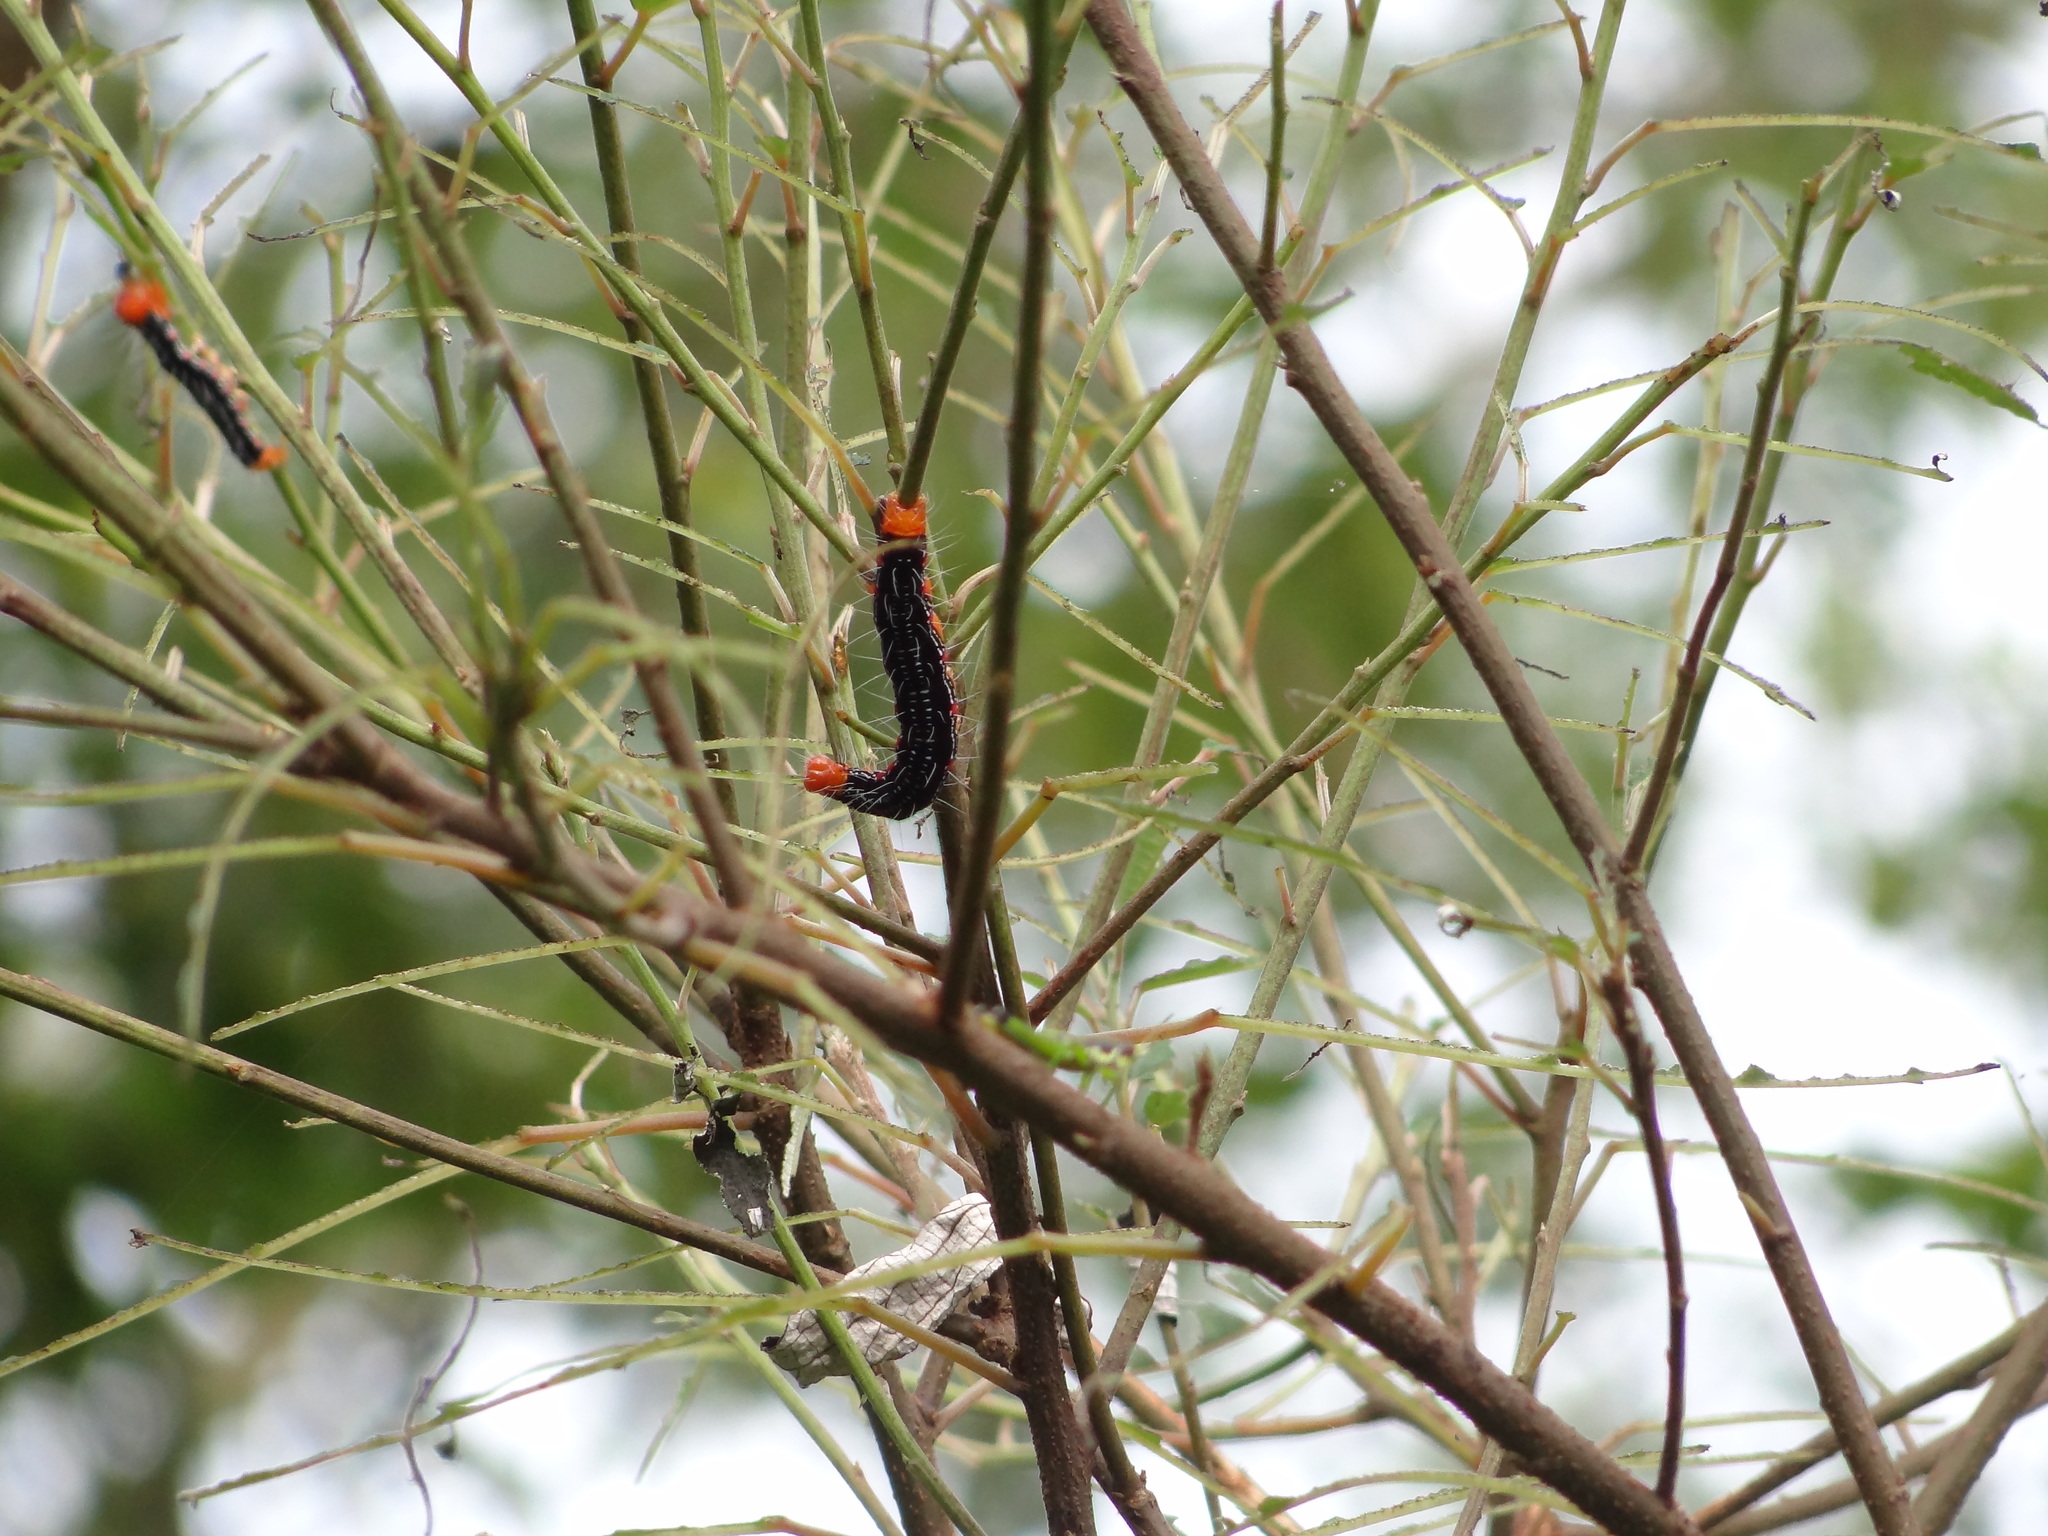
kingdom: Animalia
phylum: Arthropoda
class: Insecta
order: Lepidoptera
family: Erebidae
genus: Arcte
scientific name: Arcte coerula
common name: Ramie moth
